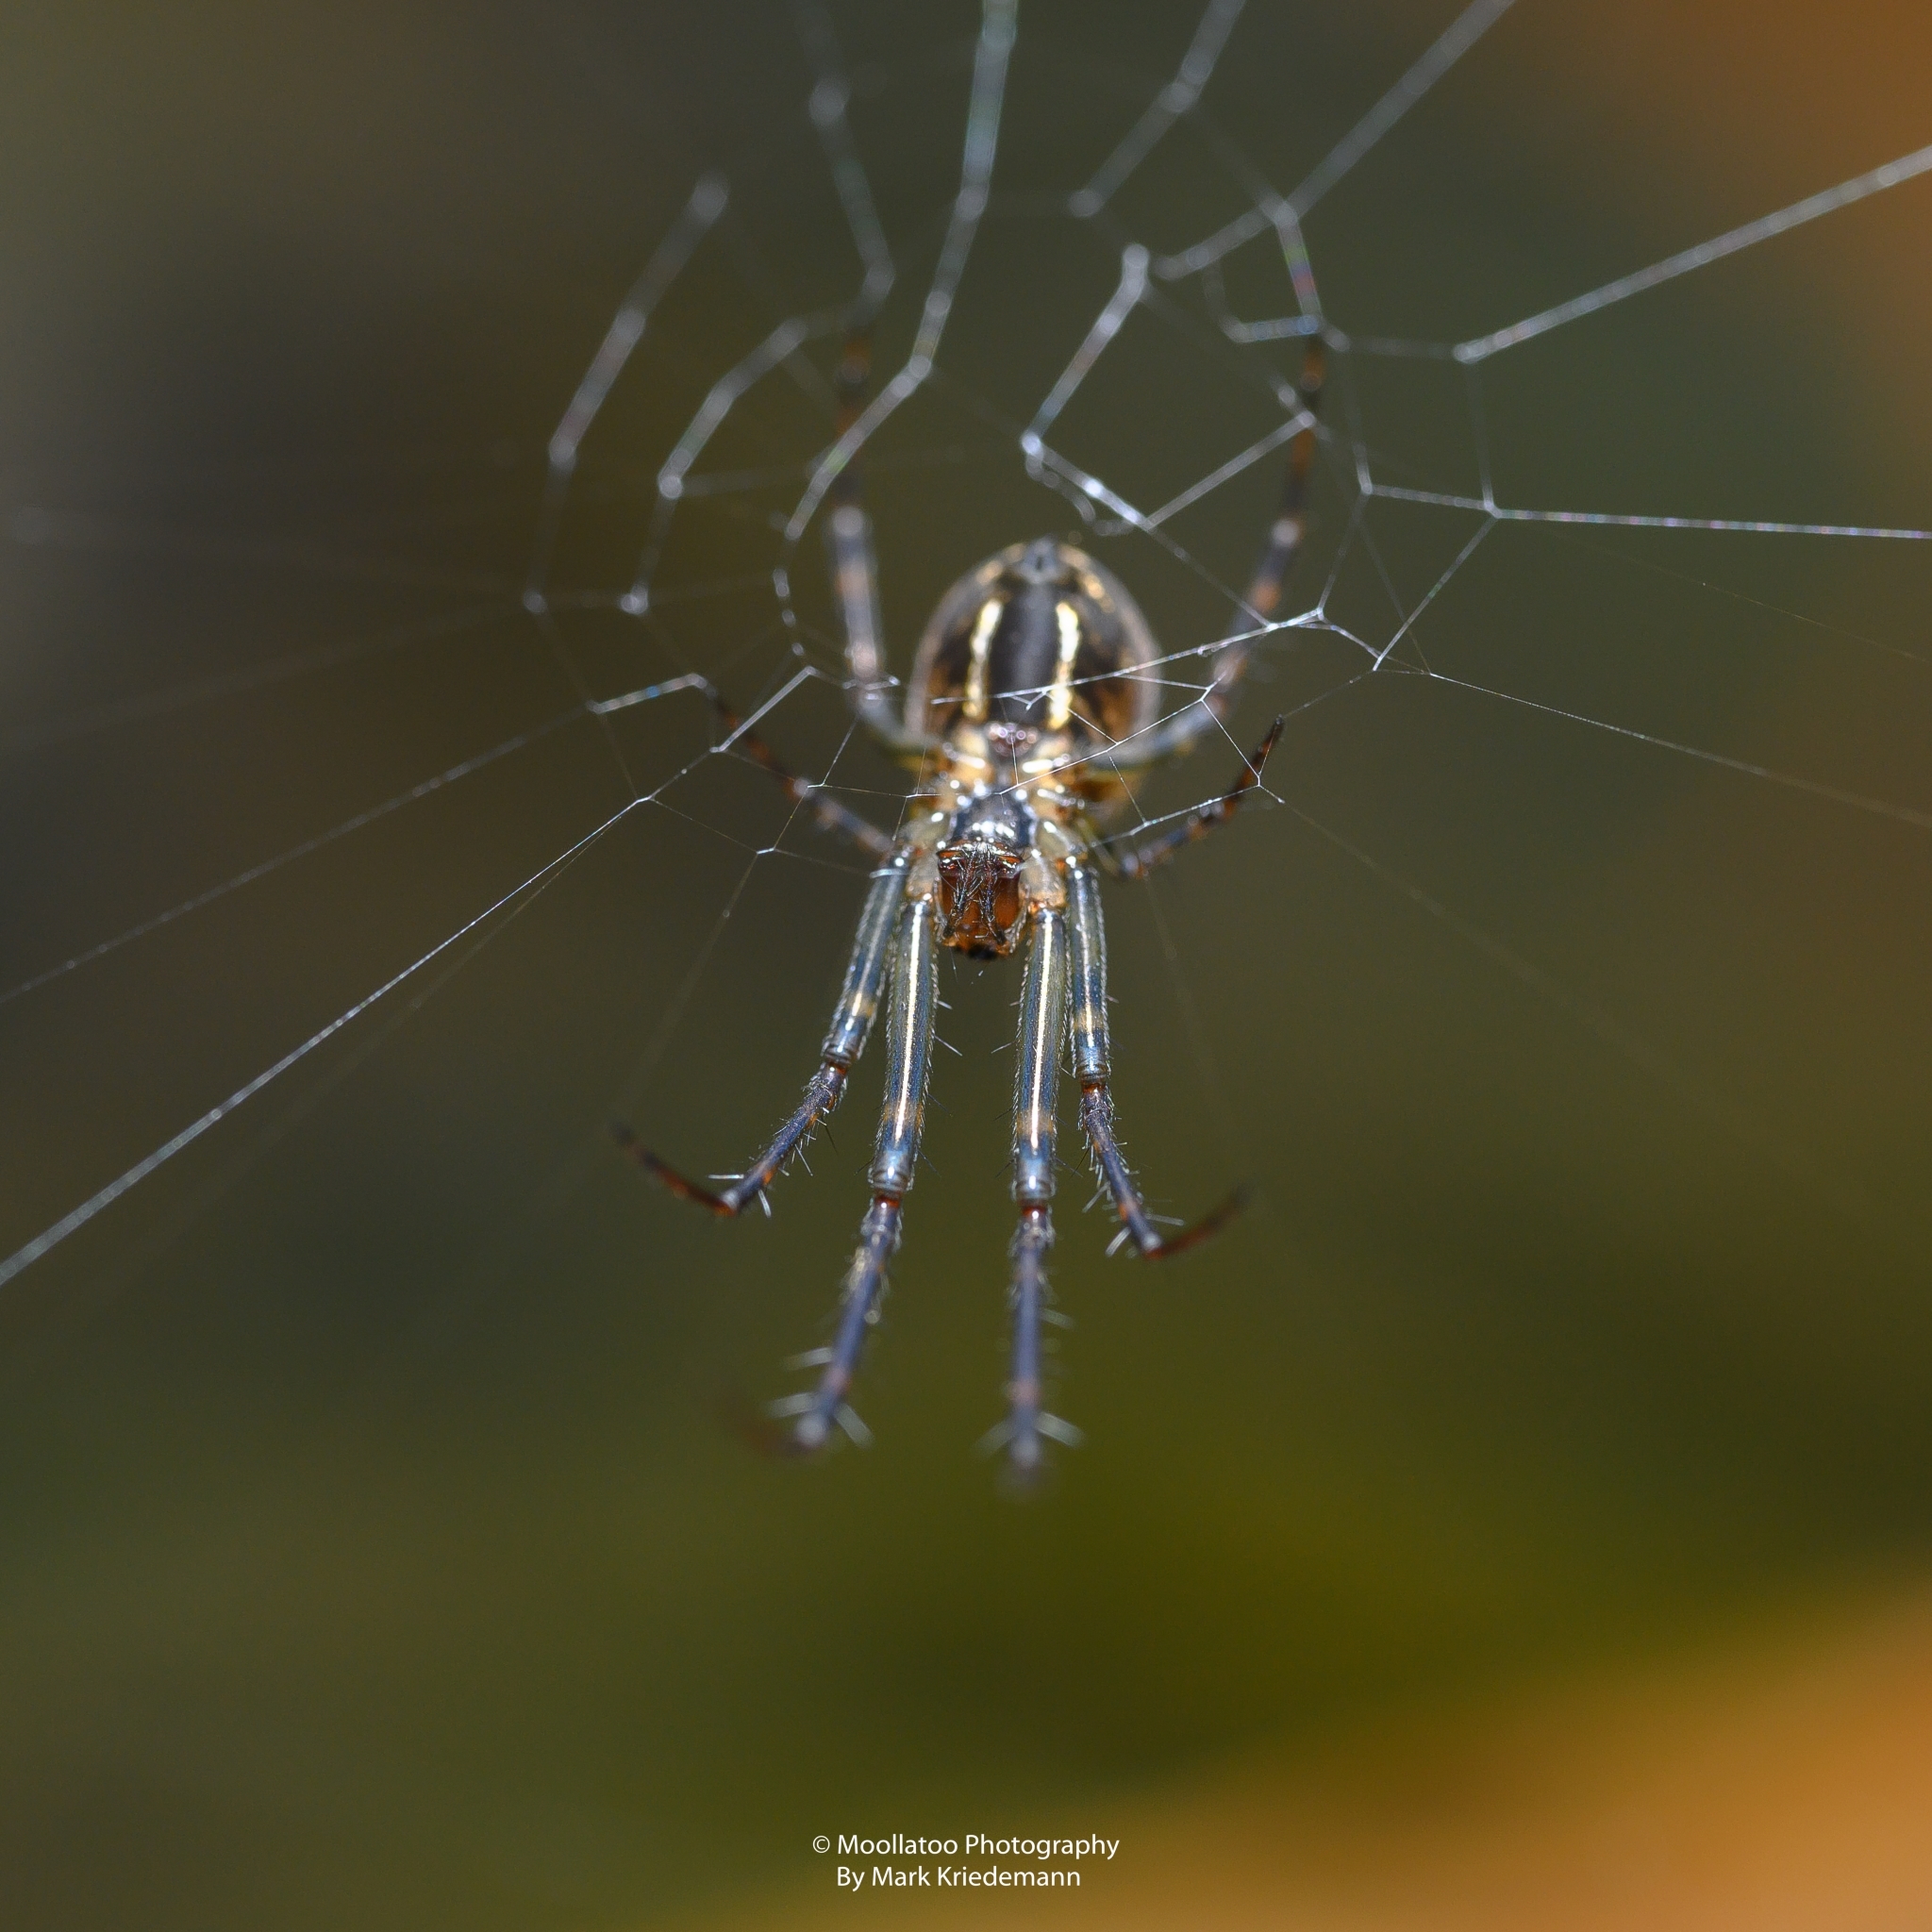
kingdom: Animalia
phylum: Arthropoda
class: Arachnida
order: Araneae
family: Tetragnathidae
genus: Leucauge
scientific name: Leucauge dromedaria
